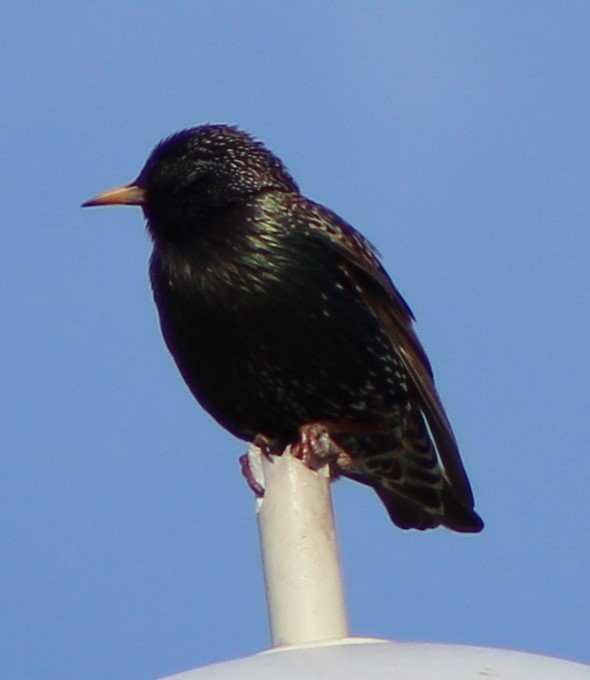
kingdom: Animalia
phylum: Chordata
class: Aves
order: Passeriformes
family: Sturnidae
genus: Sturnus
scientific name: Sturnus vulgaris
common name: Common starling
